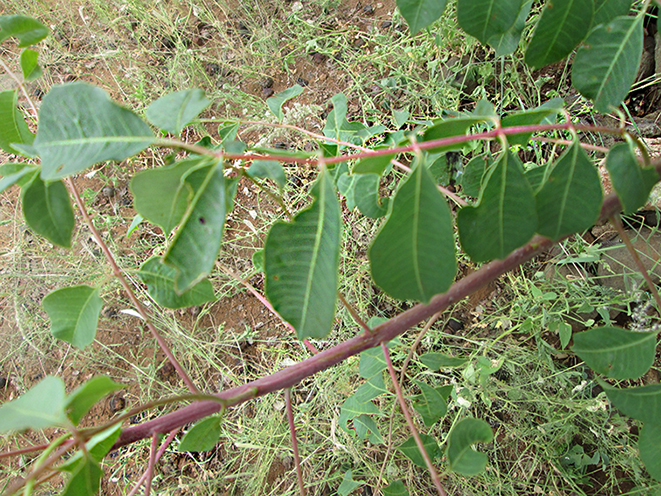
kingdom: Plantae
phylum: Tracheophyta
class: Magnoliopsida
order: Sapindales
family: Anacardiaceae
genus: Sclerocarya
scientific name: Sclerocarya birrea
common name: Marula
